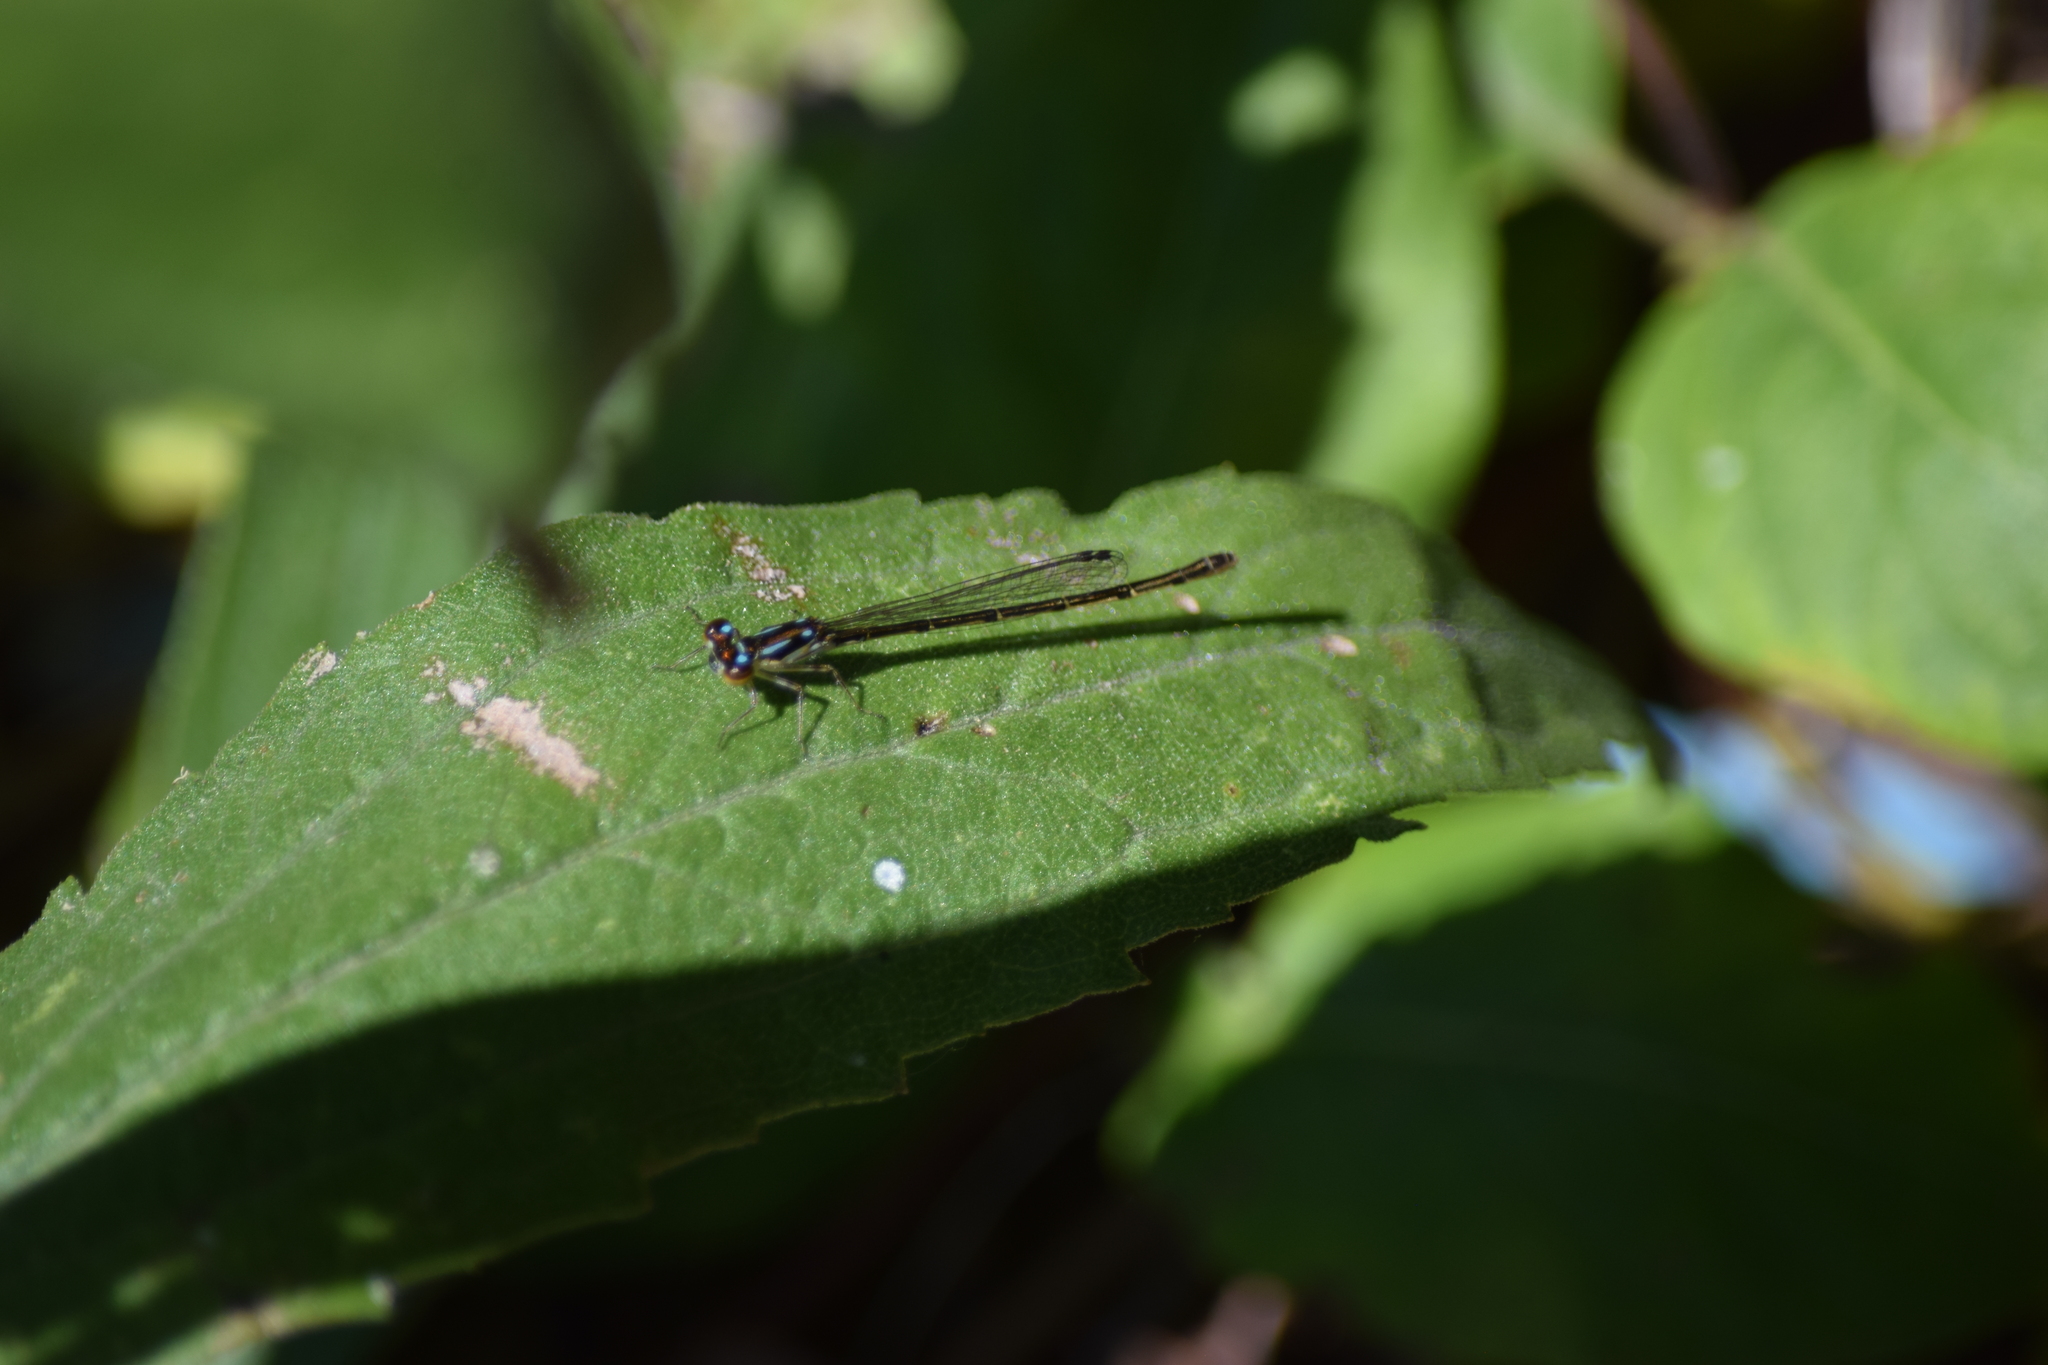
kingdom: Animalia
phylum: Arthropoda
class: Insecta
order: Odonata
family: Coenagrionidae
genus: Ischnura
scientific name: Ischnura posita
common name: Fragile forktail
